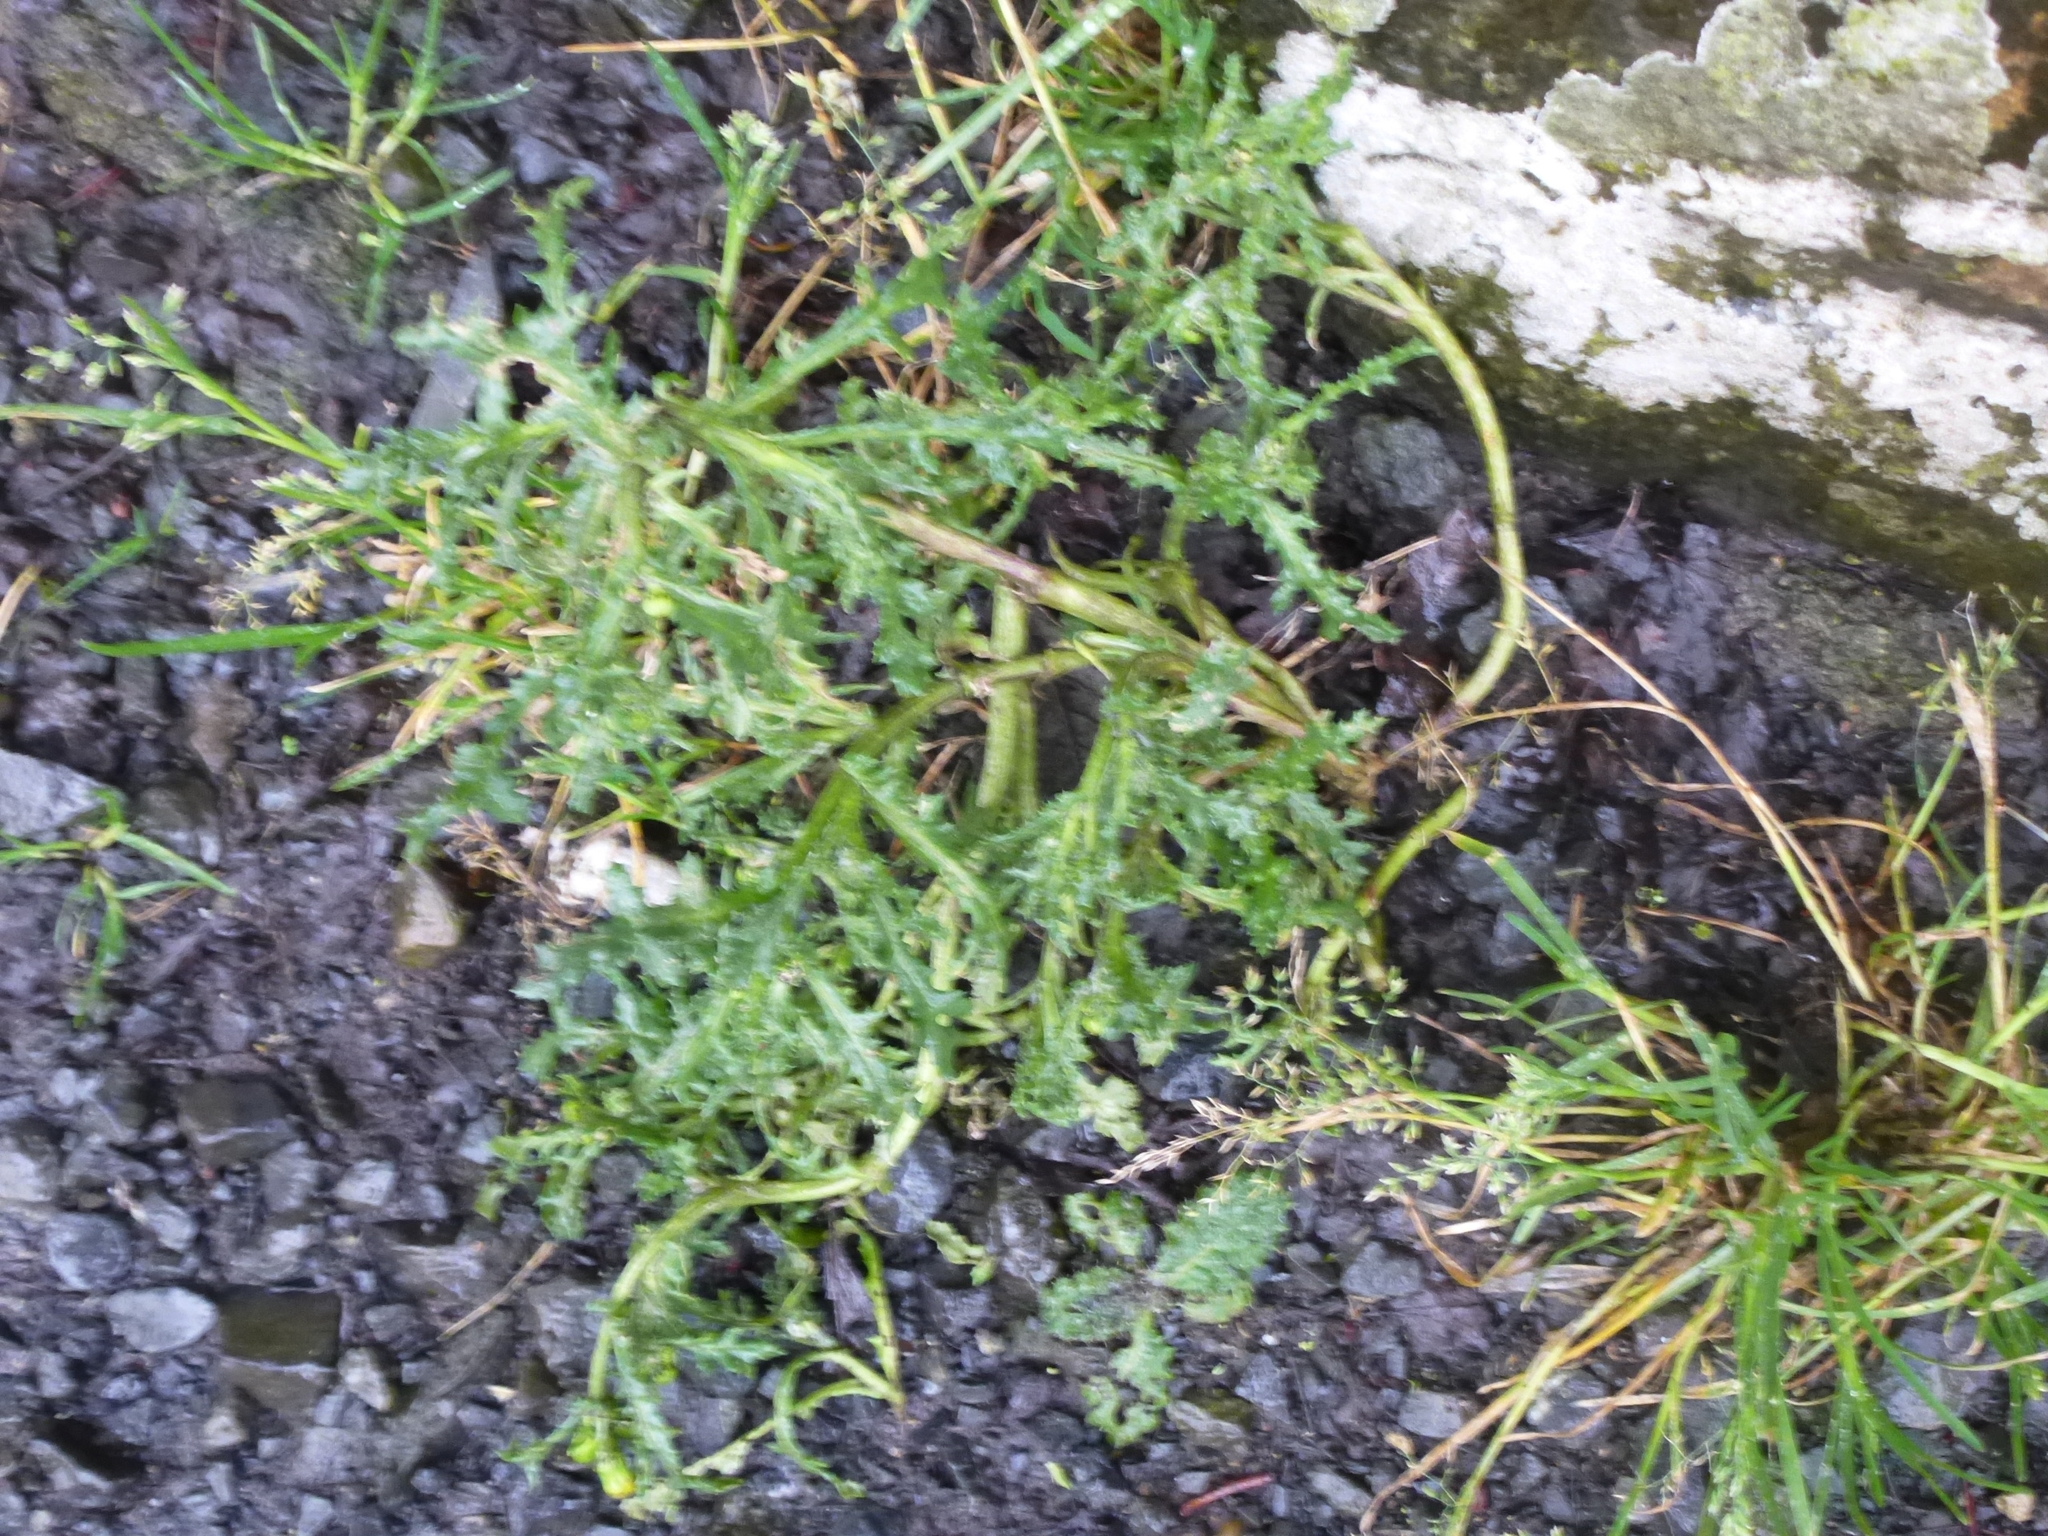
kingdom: Plantae
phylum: Tracheophyta
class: Magnoliopsida
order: Asterales
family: Asteraceae
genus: Senecio
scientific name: Senecio vulgaris
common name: Old-man-in-the-spring
